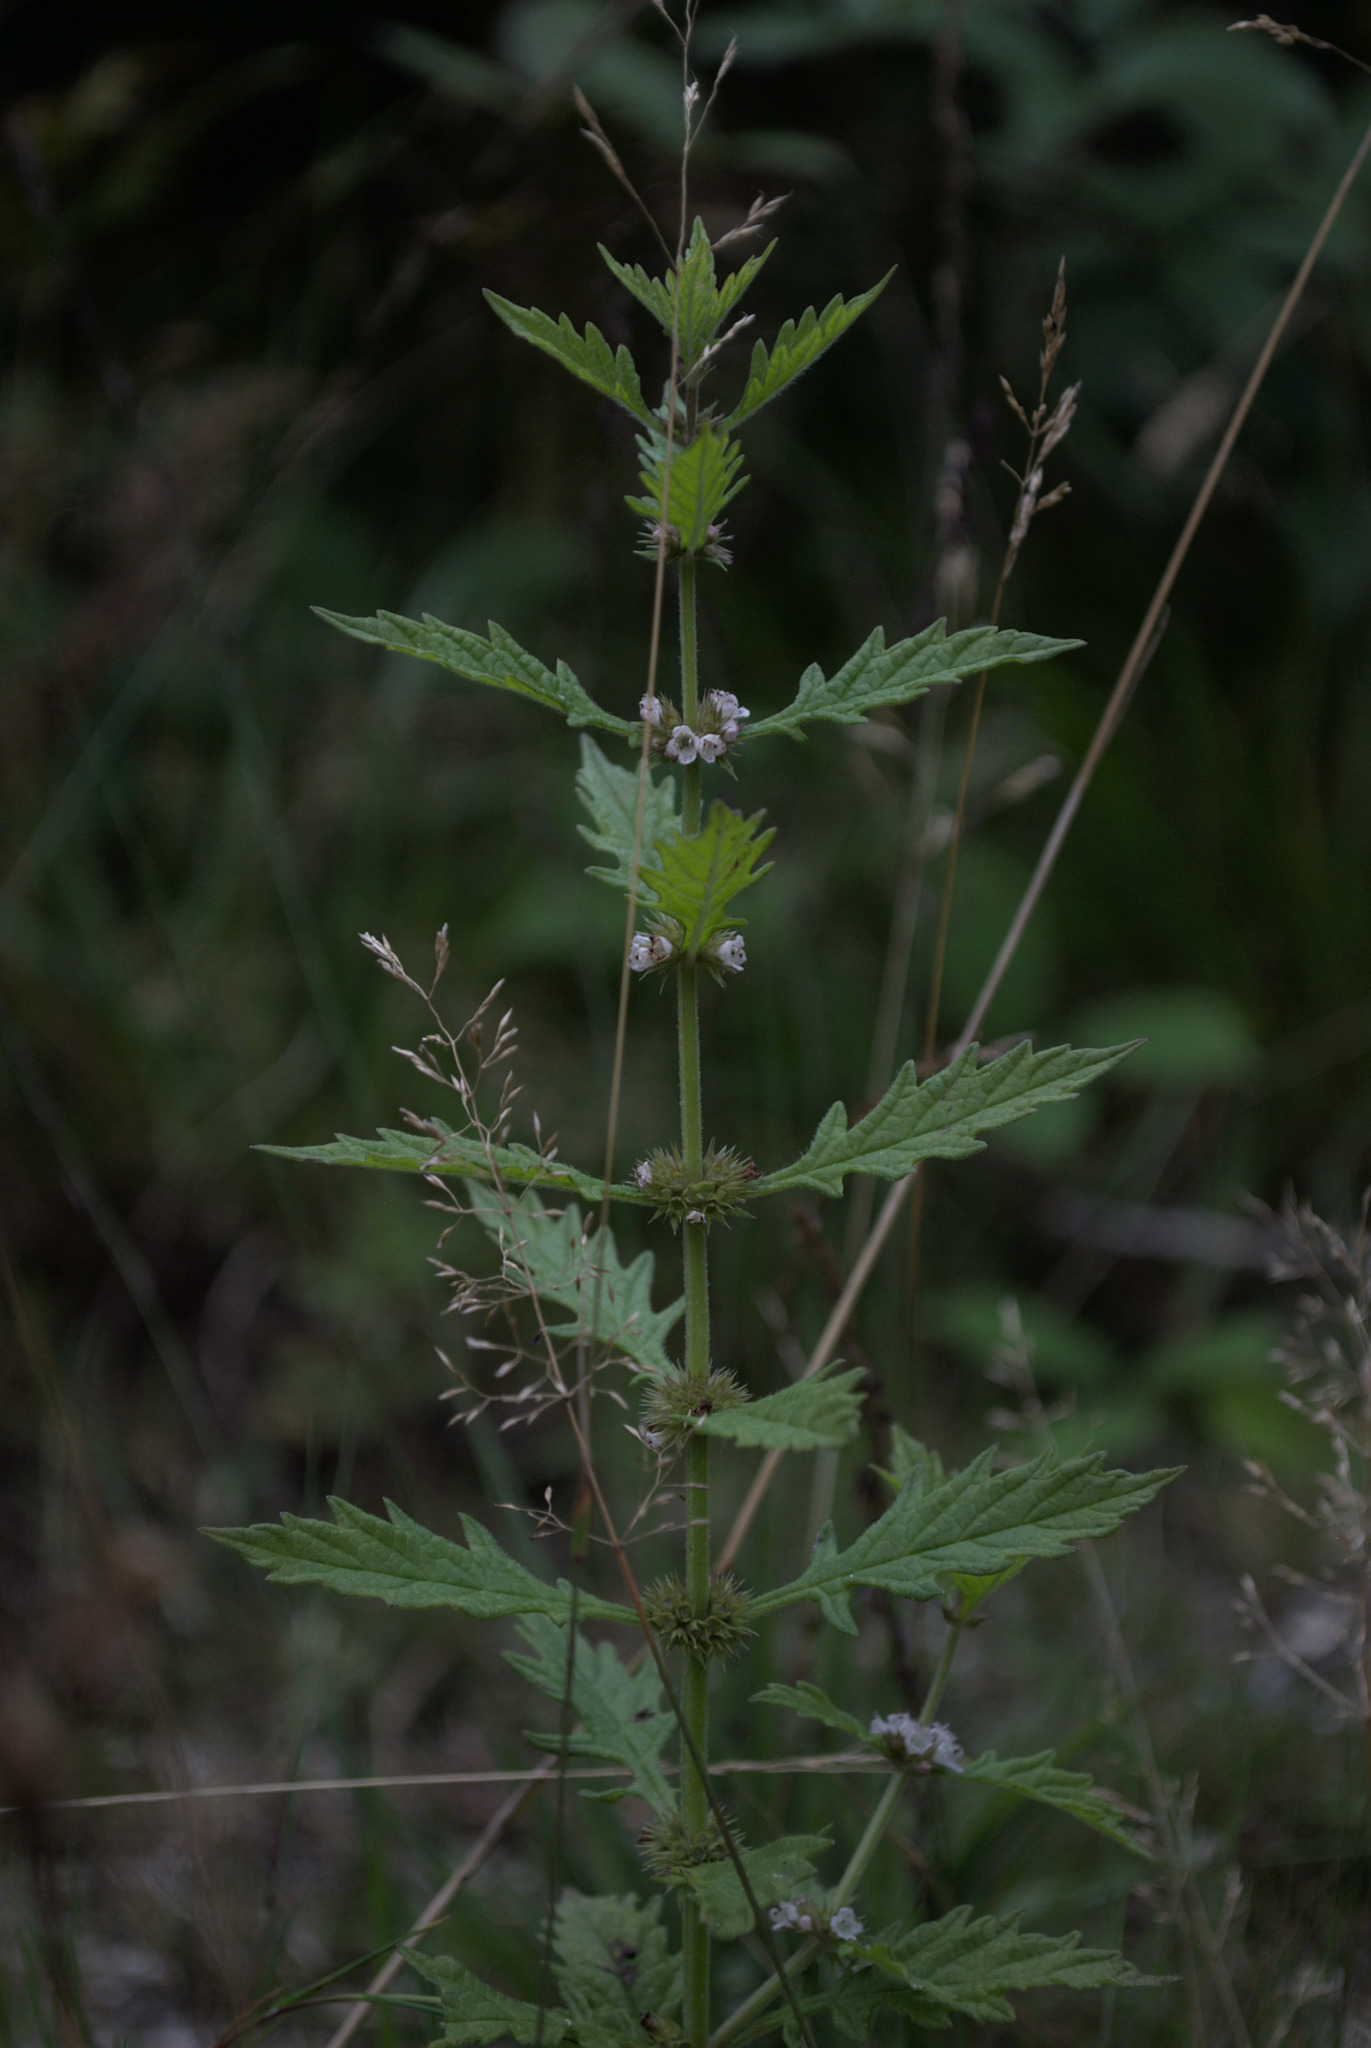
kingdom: Plantae
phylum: Tracheophyta
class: Magnoliopsida
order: Lamiales
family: Lamiaceae
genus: Lycopus
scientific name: Lycopus europaeus
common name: European bugleweed
